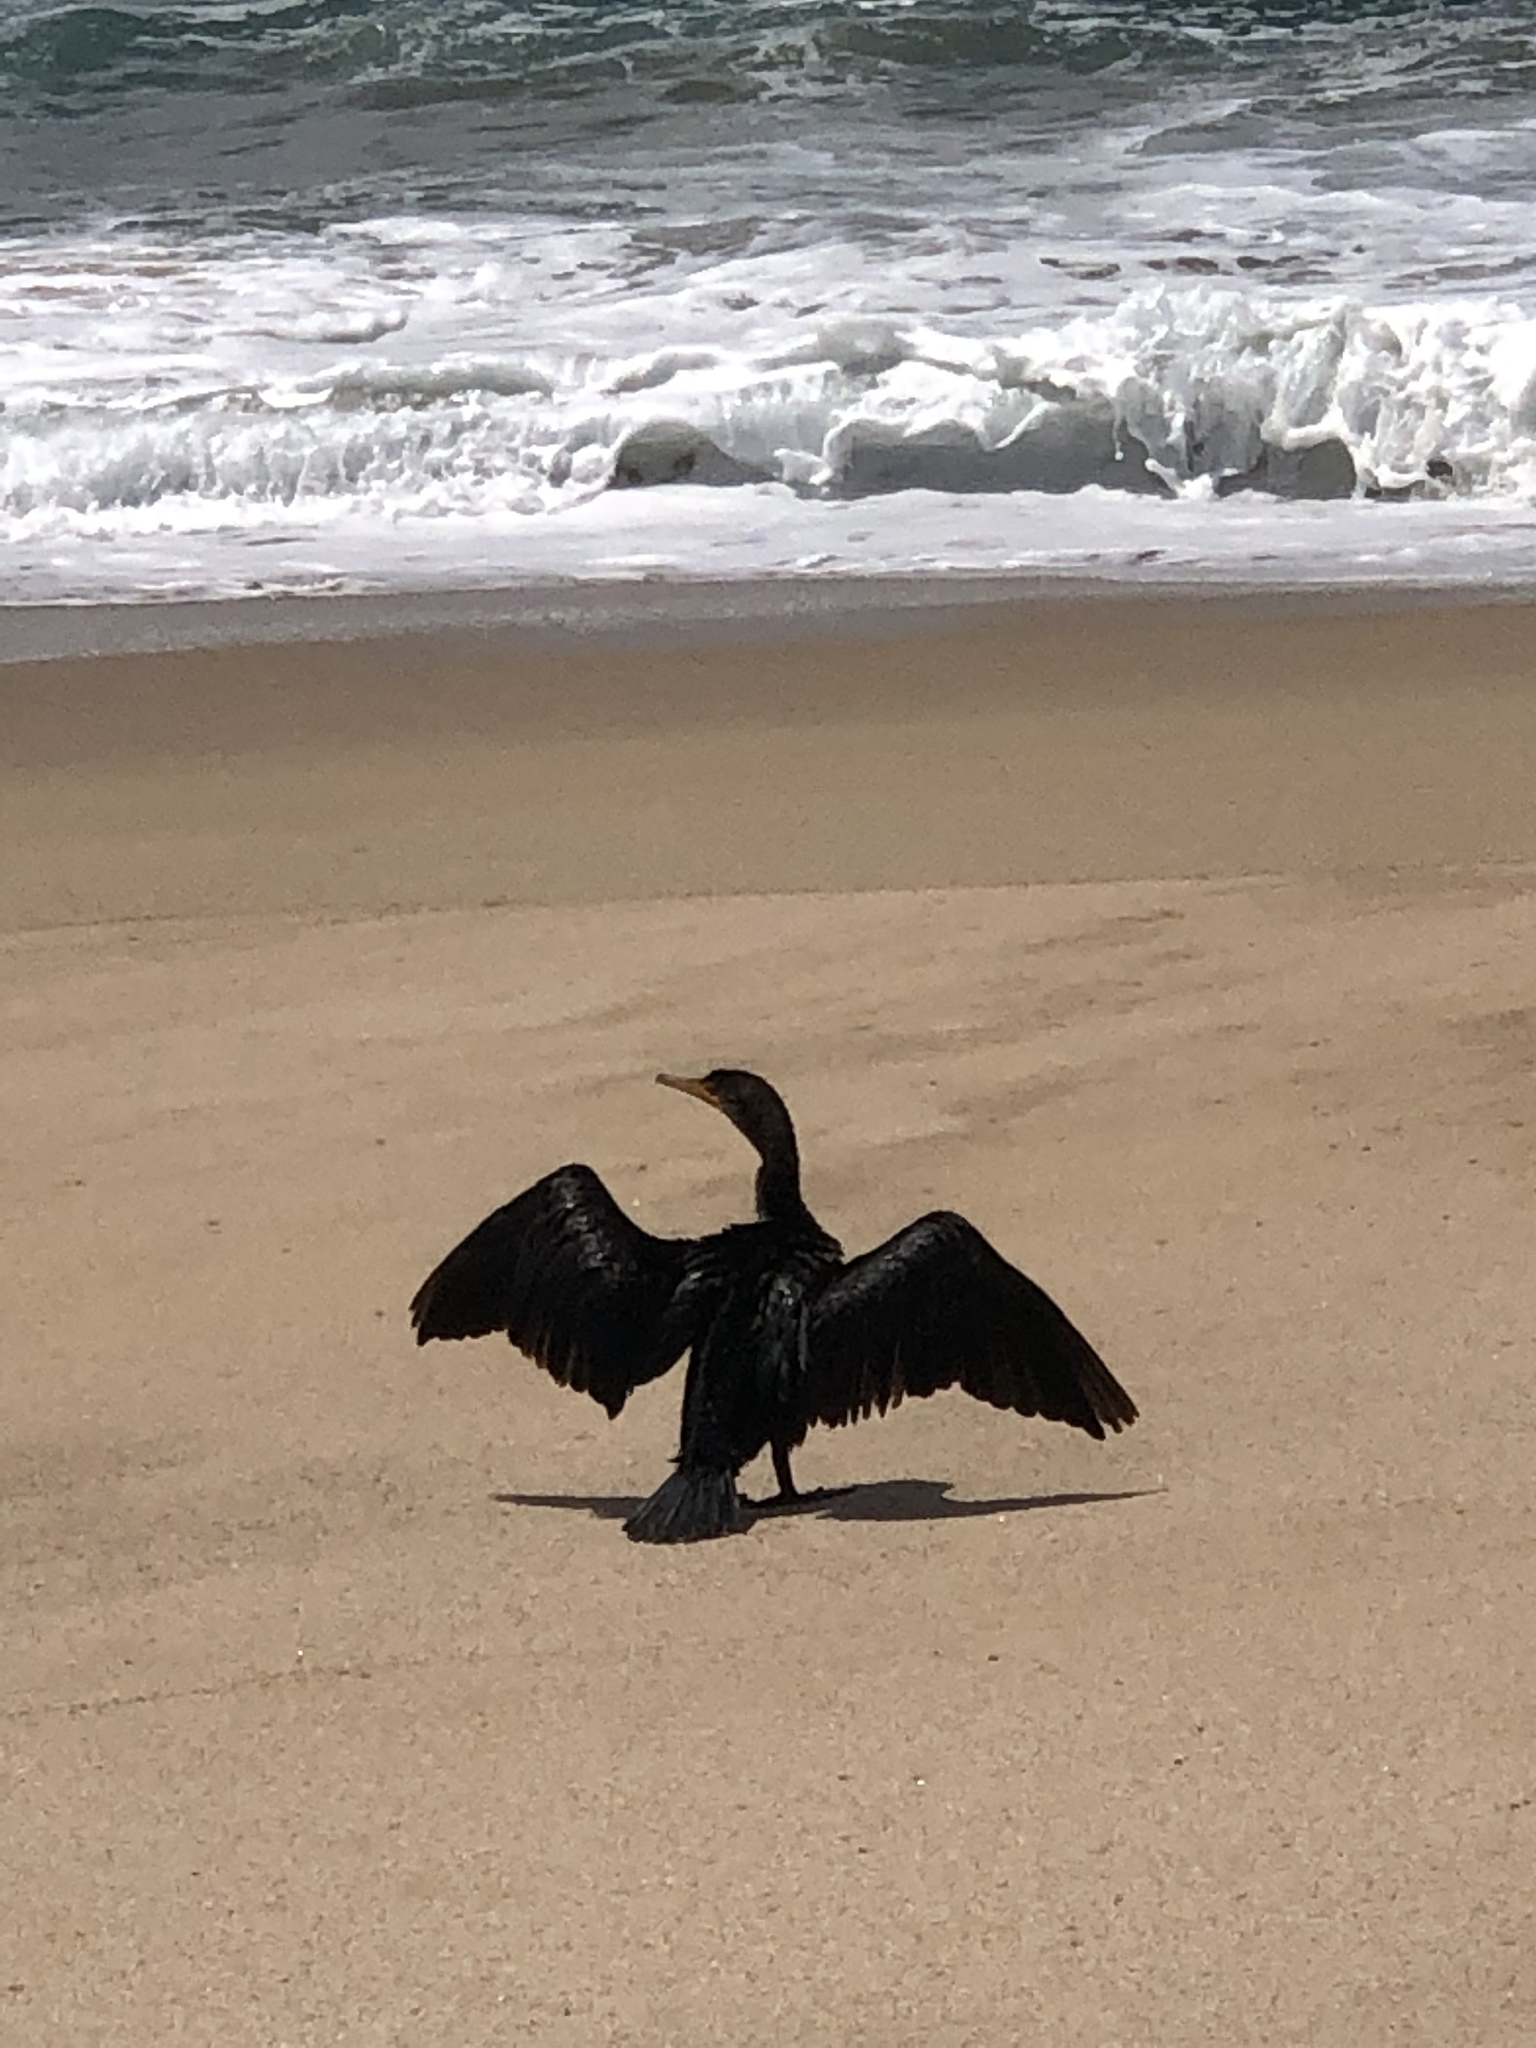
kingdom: Animalia
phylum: Chordata
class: Aves
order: Suliformes
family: Phalacrocoracidae
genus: Phalacrocorax
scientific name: Phalacrocorax auritus
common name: Double-crested cormorant
